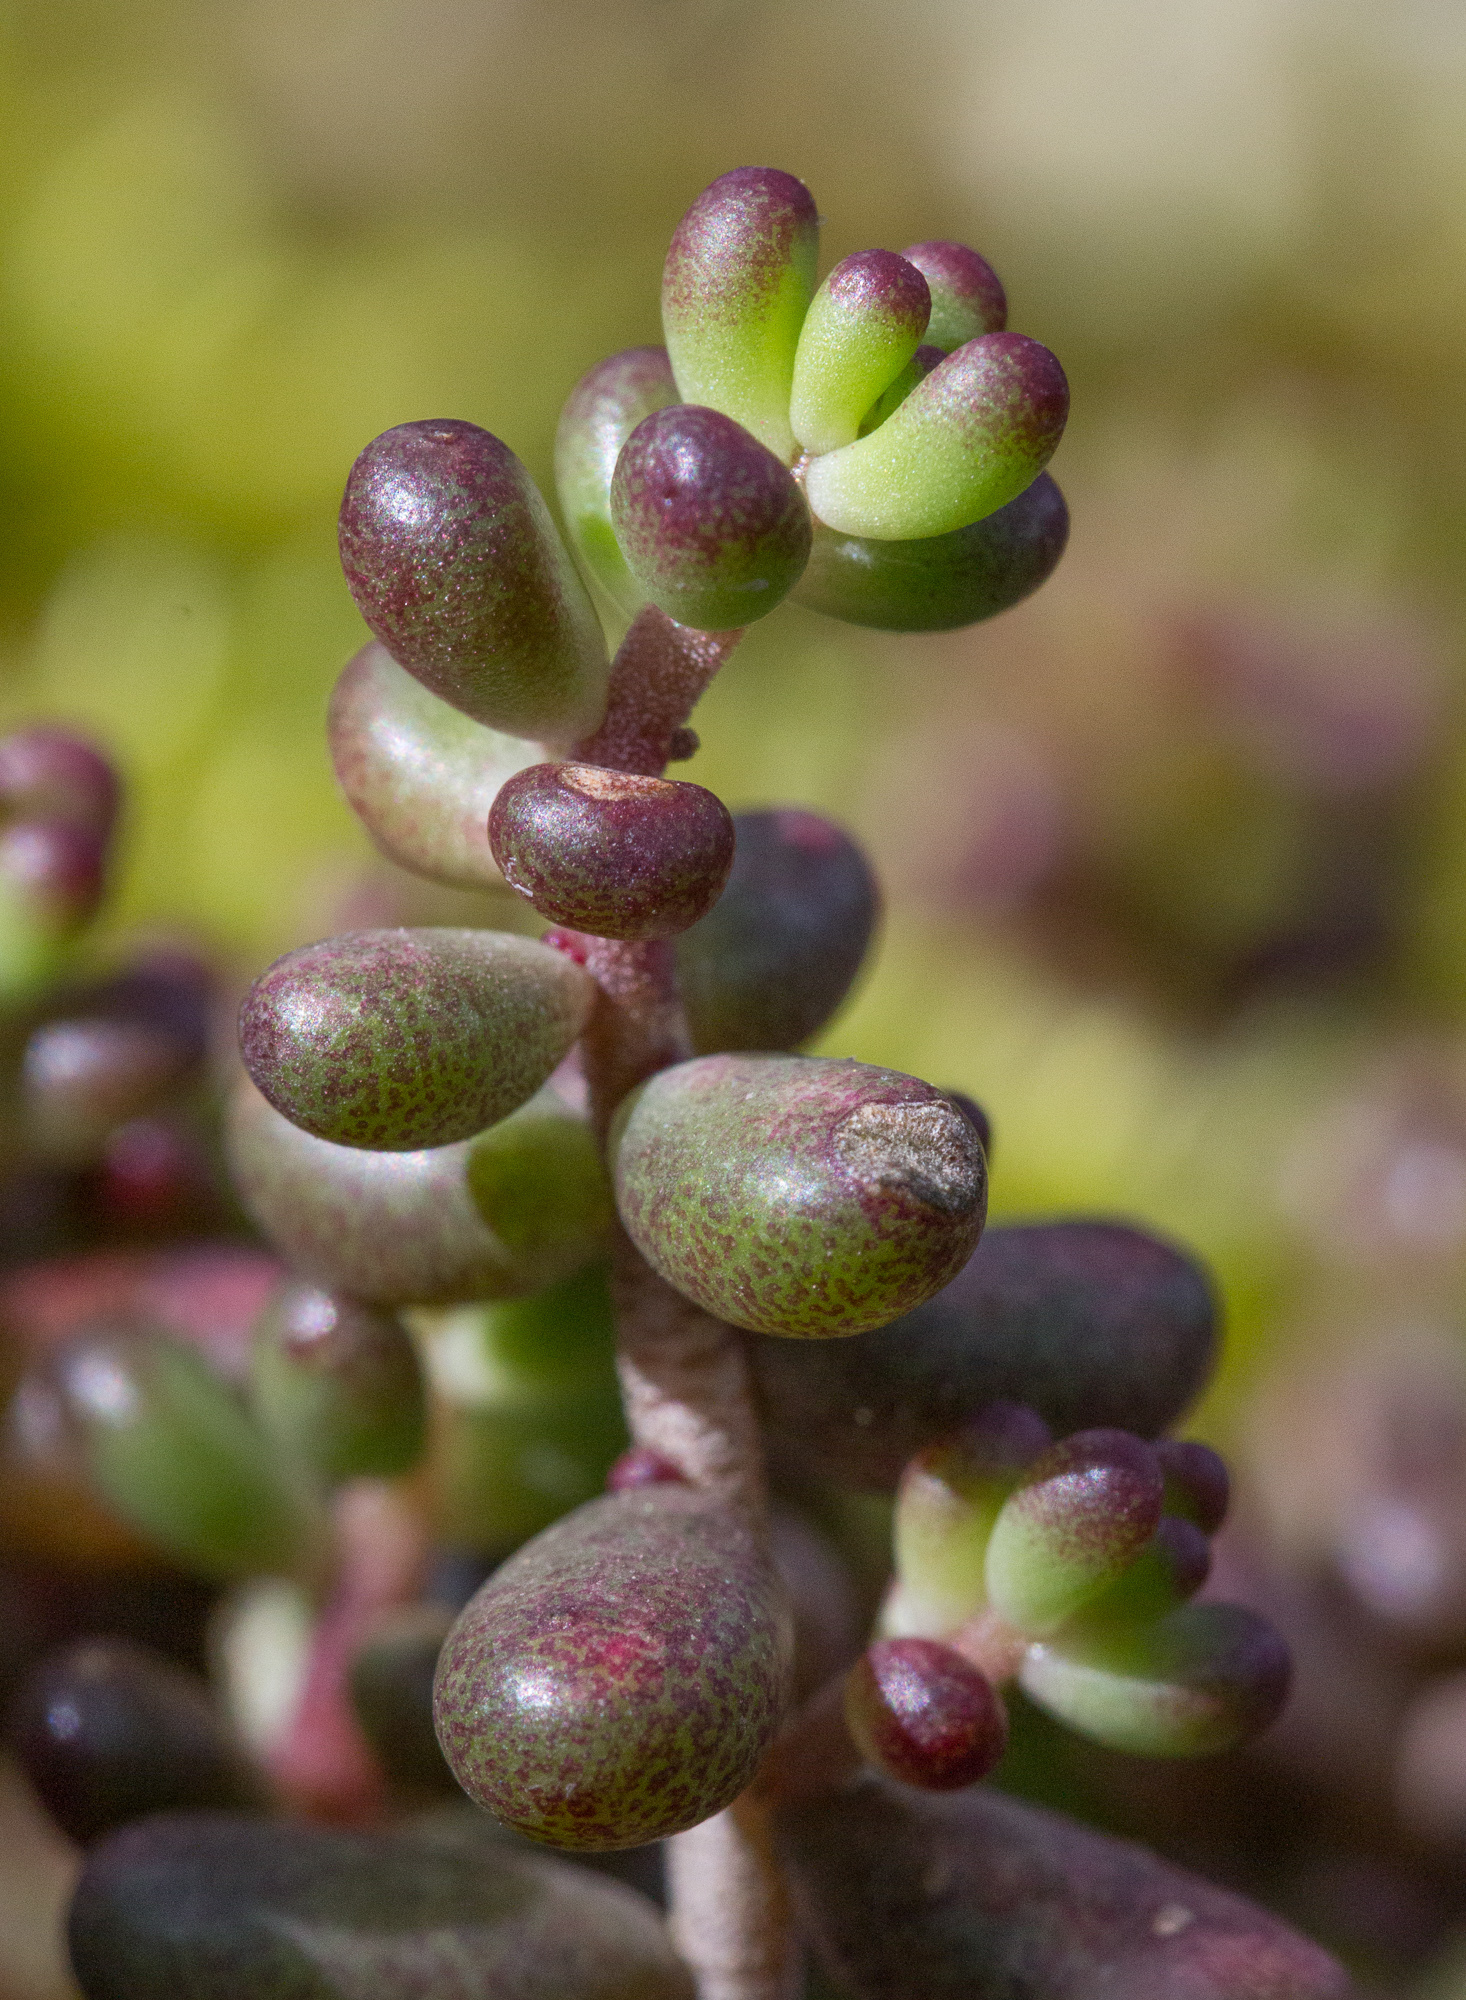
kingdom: Plantae
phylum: Tracheophyta
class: Magnoliopsida
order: Saxifragales
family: Crassulaceae
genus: Sedum
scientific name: Sedum album
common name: White stonecrop
